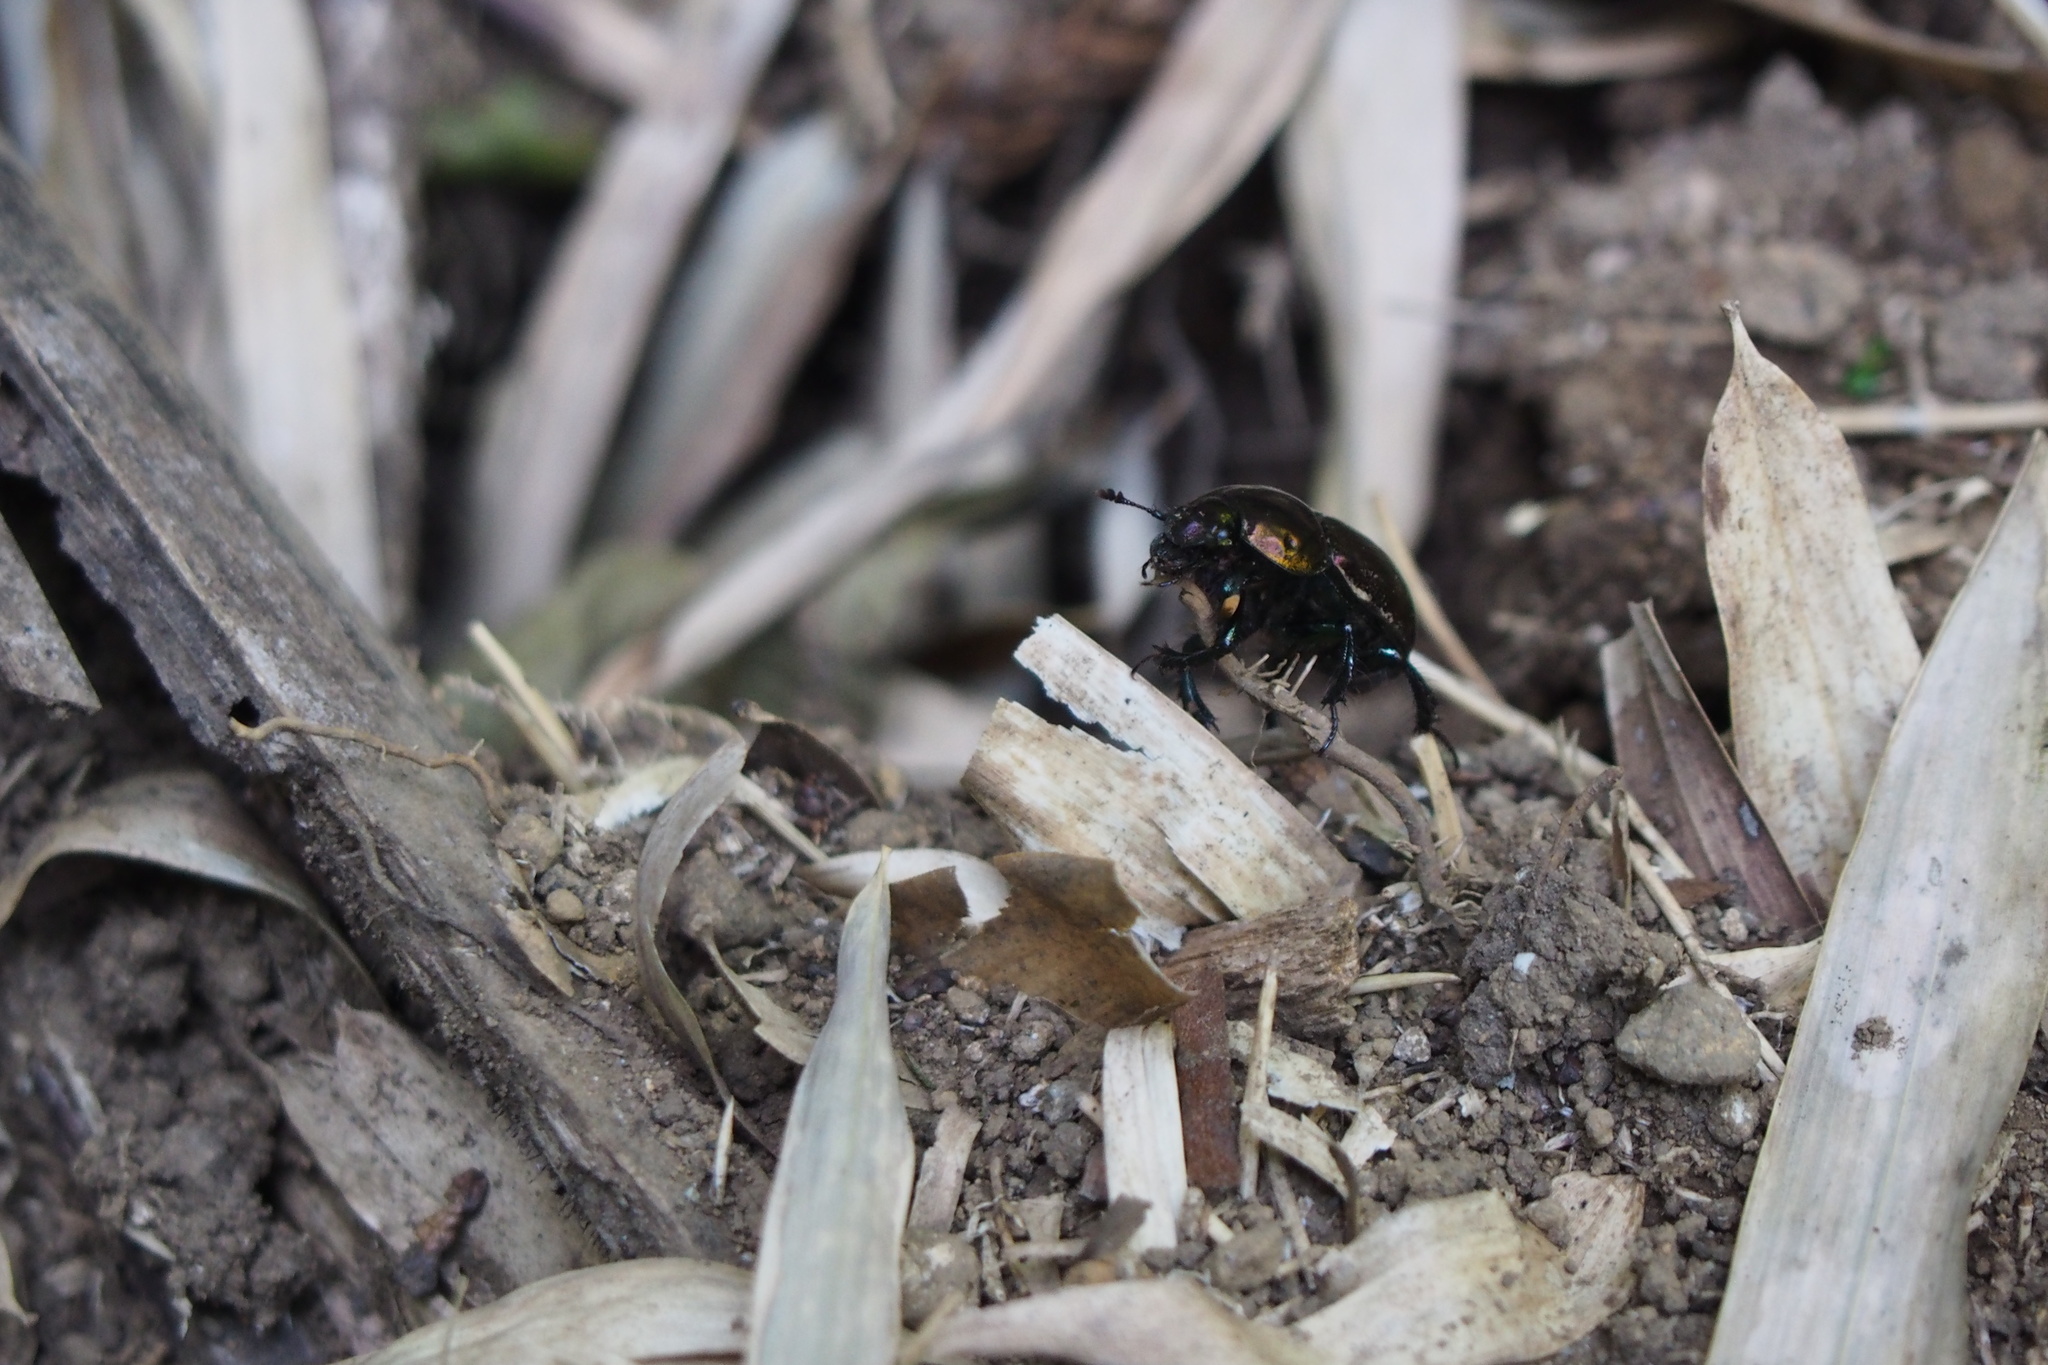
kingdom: Animalia
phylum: Arthropoda
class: Insecta
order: Coleoptera
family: Geotrupidae
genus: Phelotrupes
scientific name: Phelotrupes laevistriatus
